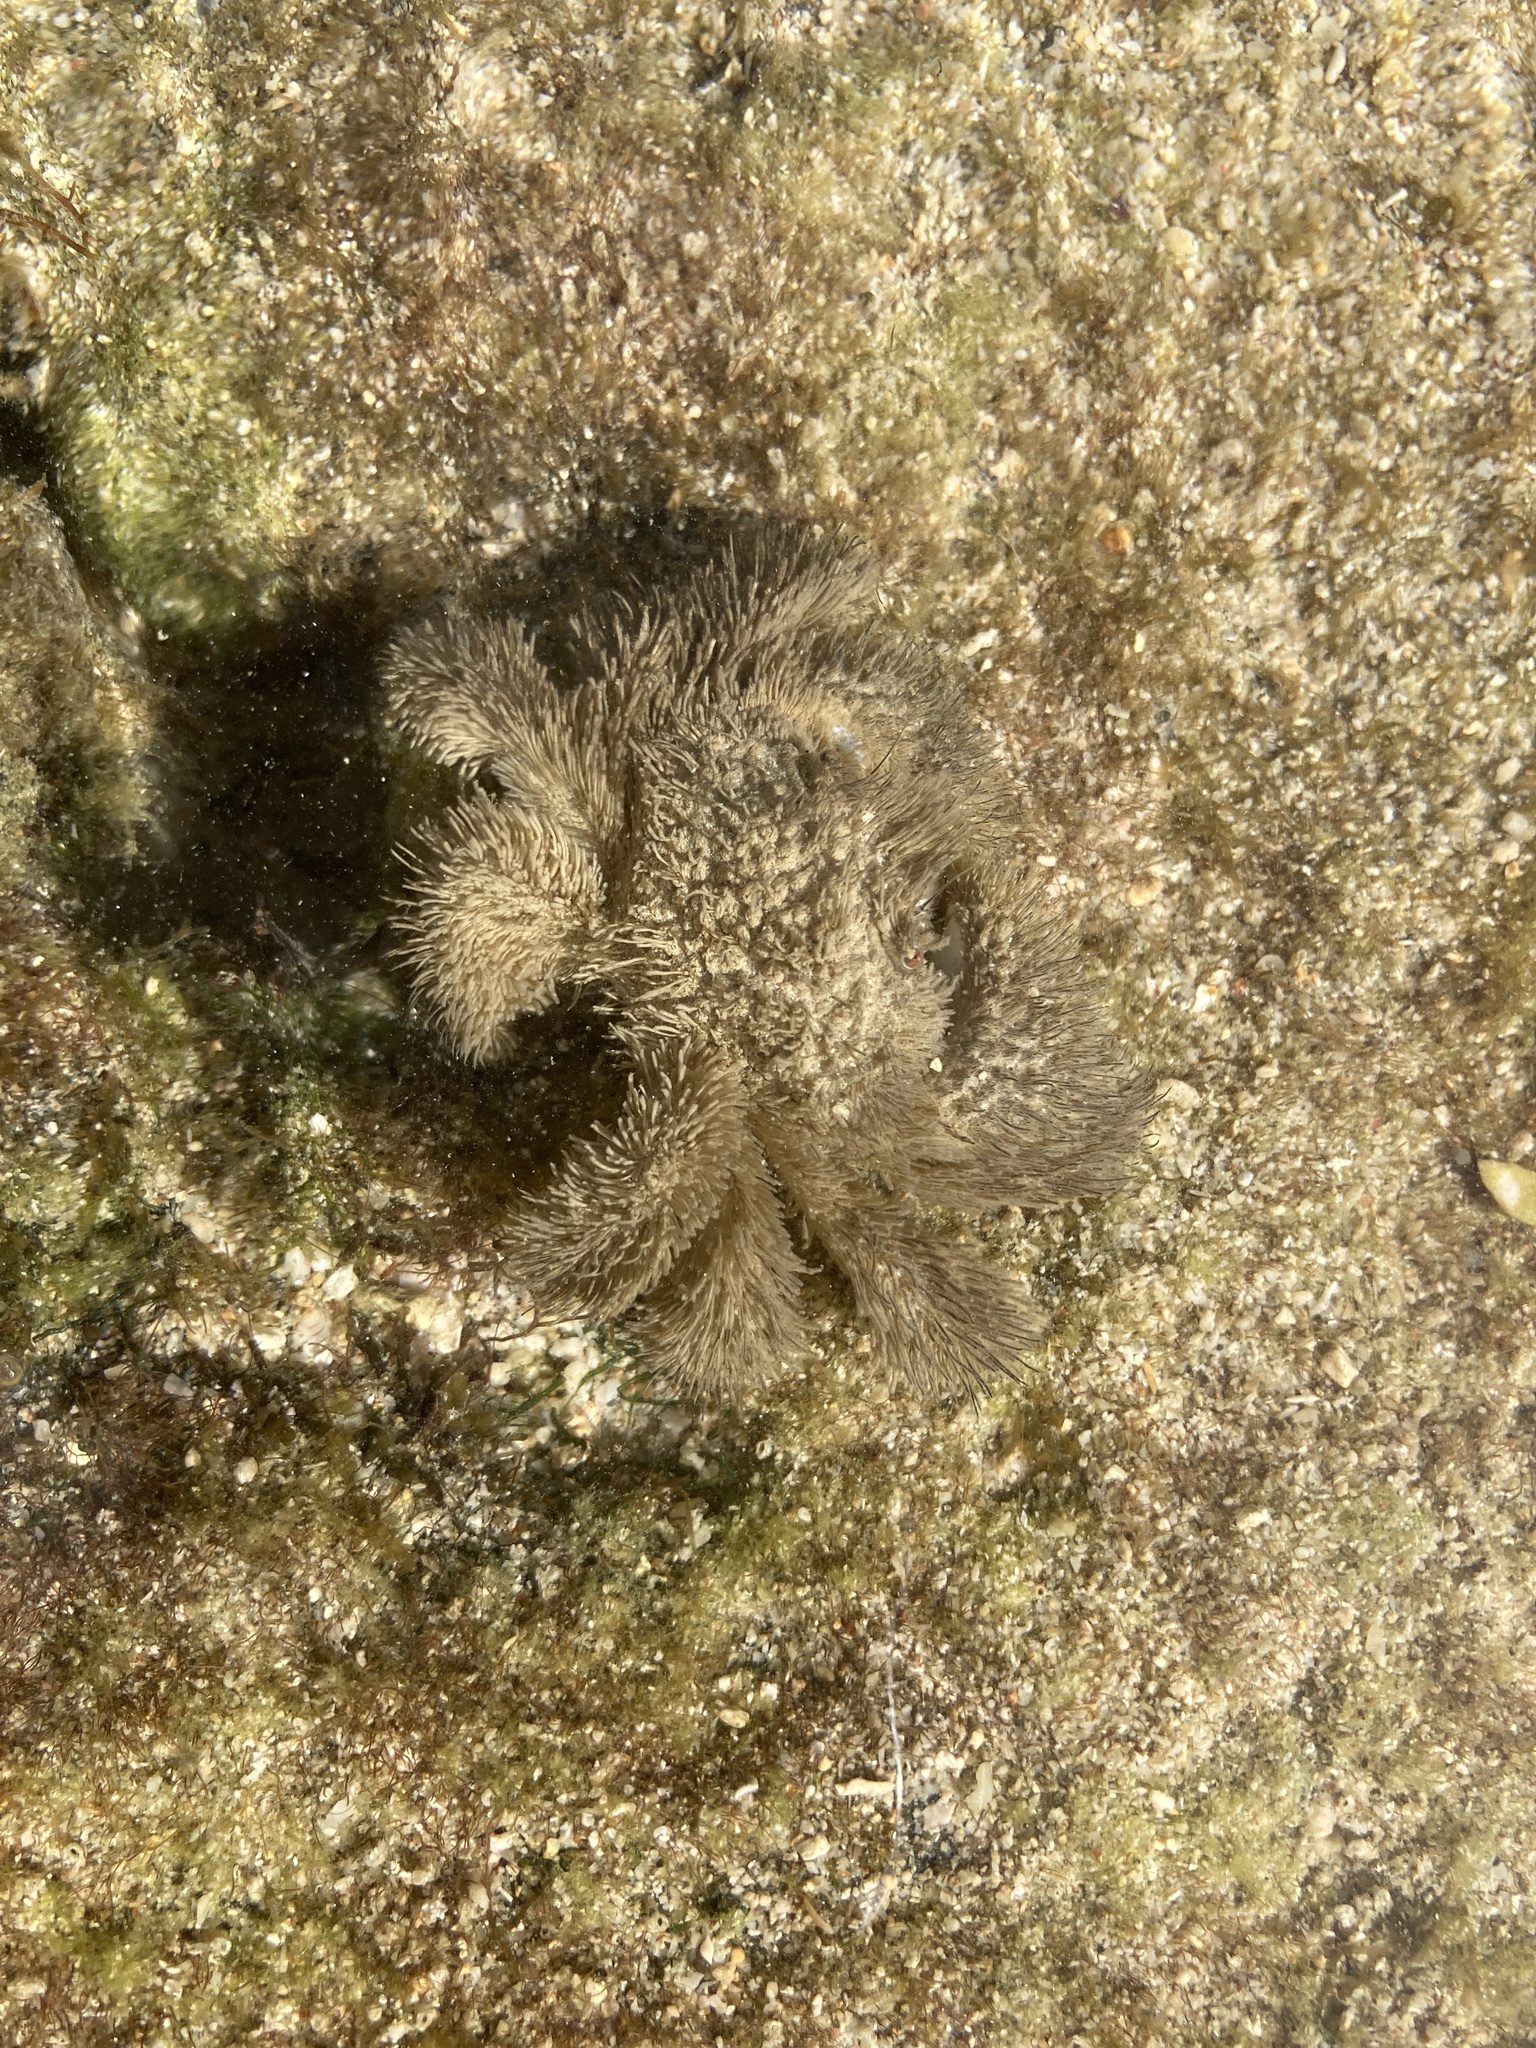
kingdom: Animalia
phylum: Arthropoda
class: Malacostraca
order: Decapoda
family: Pilumnidae
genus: Pilumnus
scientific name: Pilumnus vespertilio
